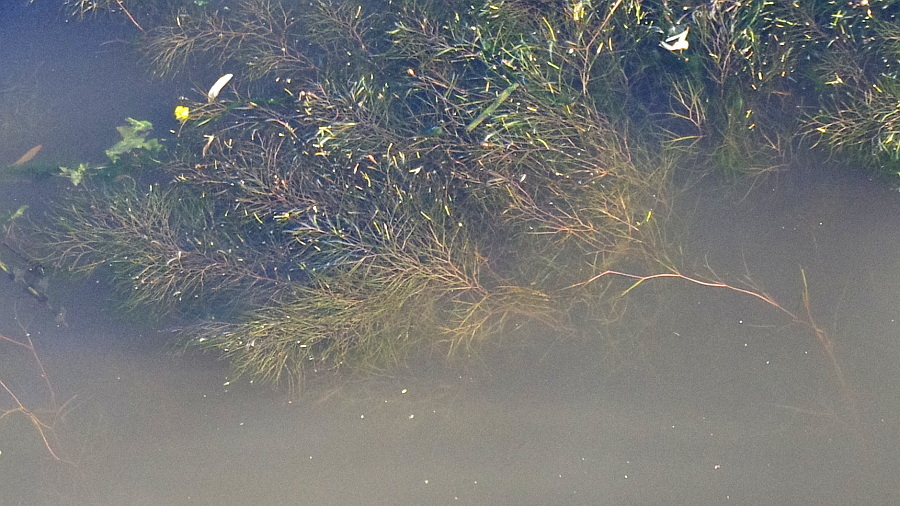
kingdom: Plantae
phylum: Tracheophyta
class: Liliopsida
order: Alismatales
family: Potamogetonaceae
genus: Stuckenia
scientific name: Stuckenia pectinata
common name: Sago pondweed
